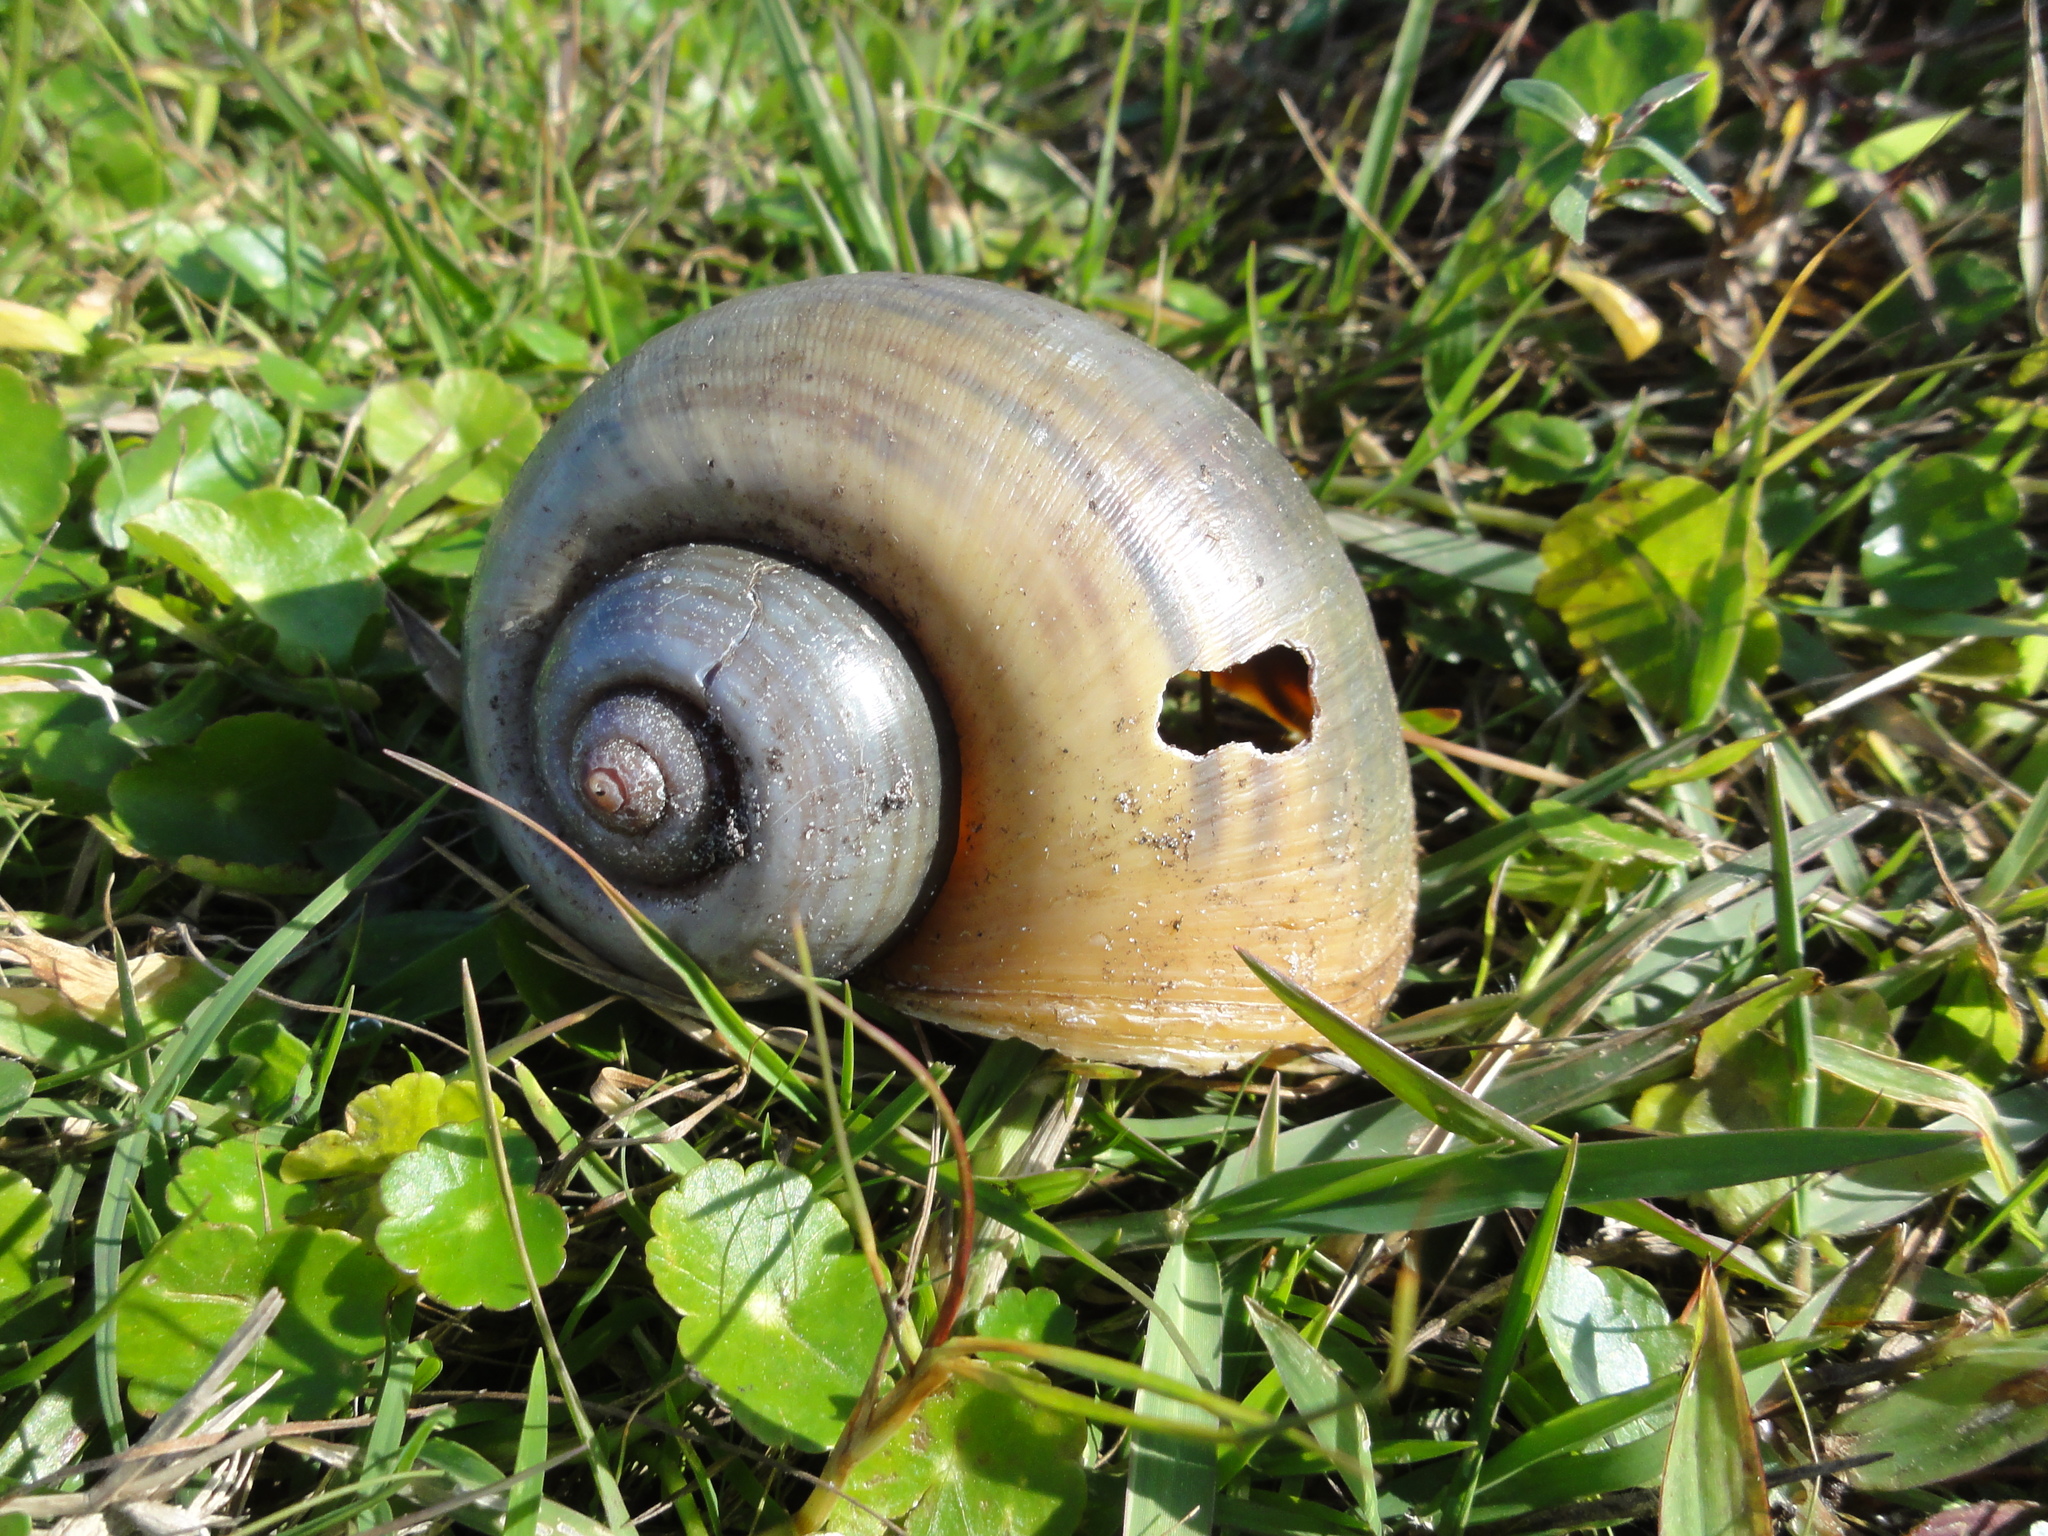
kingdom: Animalia
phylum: Mollusca
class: Gastropoda
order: Architaenioglossa
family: Ampullariidae
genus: Pomacea
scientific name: Pomacea maculata
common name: Giant applesnail
